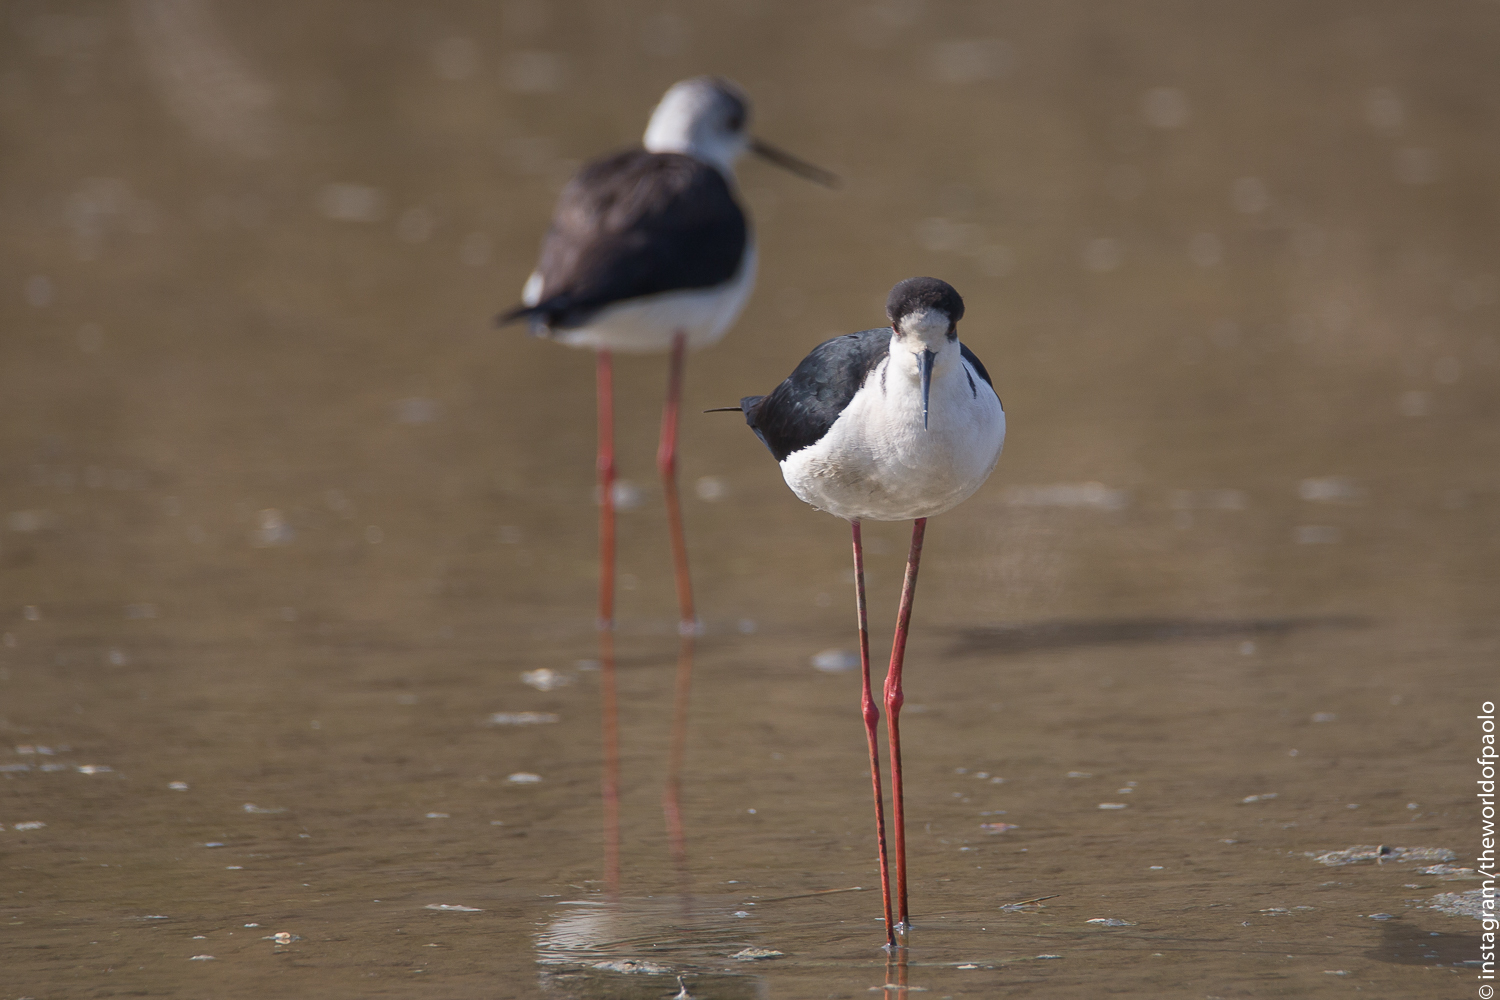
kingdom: Animalia
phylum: Chordata
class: Aves
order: Charadriiformes
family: Recurvirostridae
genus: Himantopus
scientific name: Himantopus himantopus
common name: Black-winged stilt
